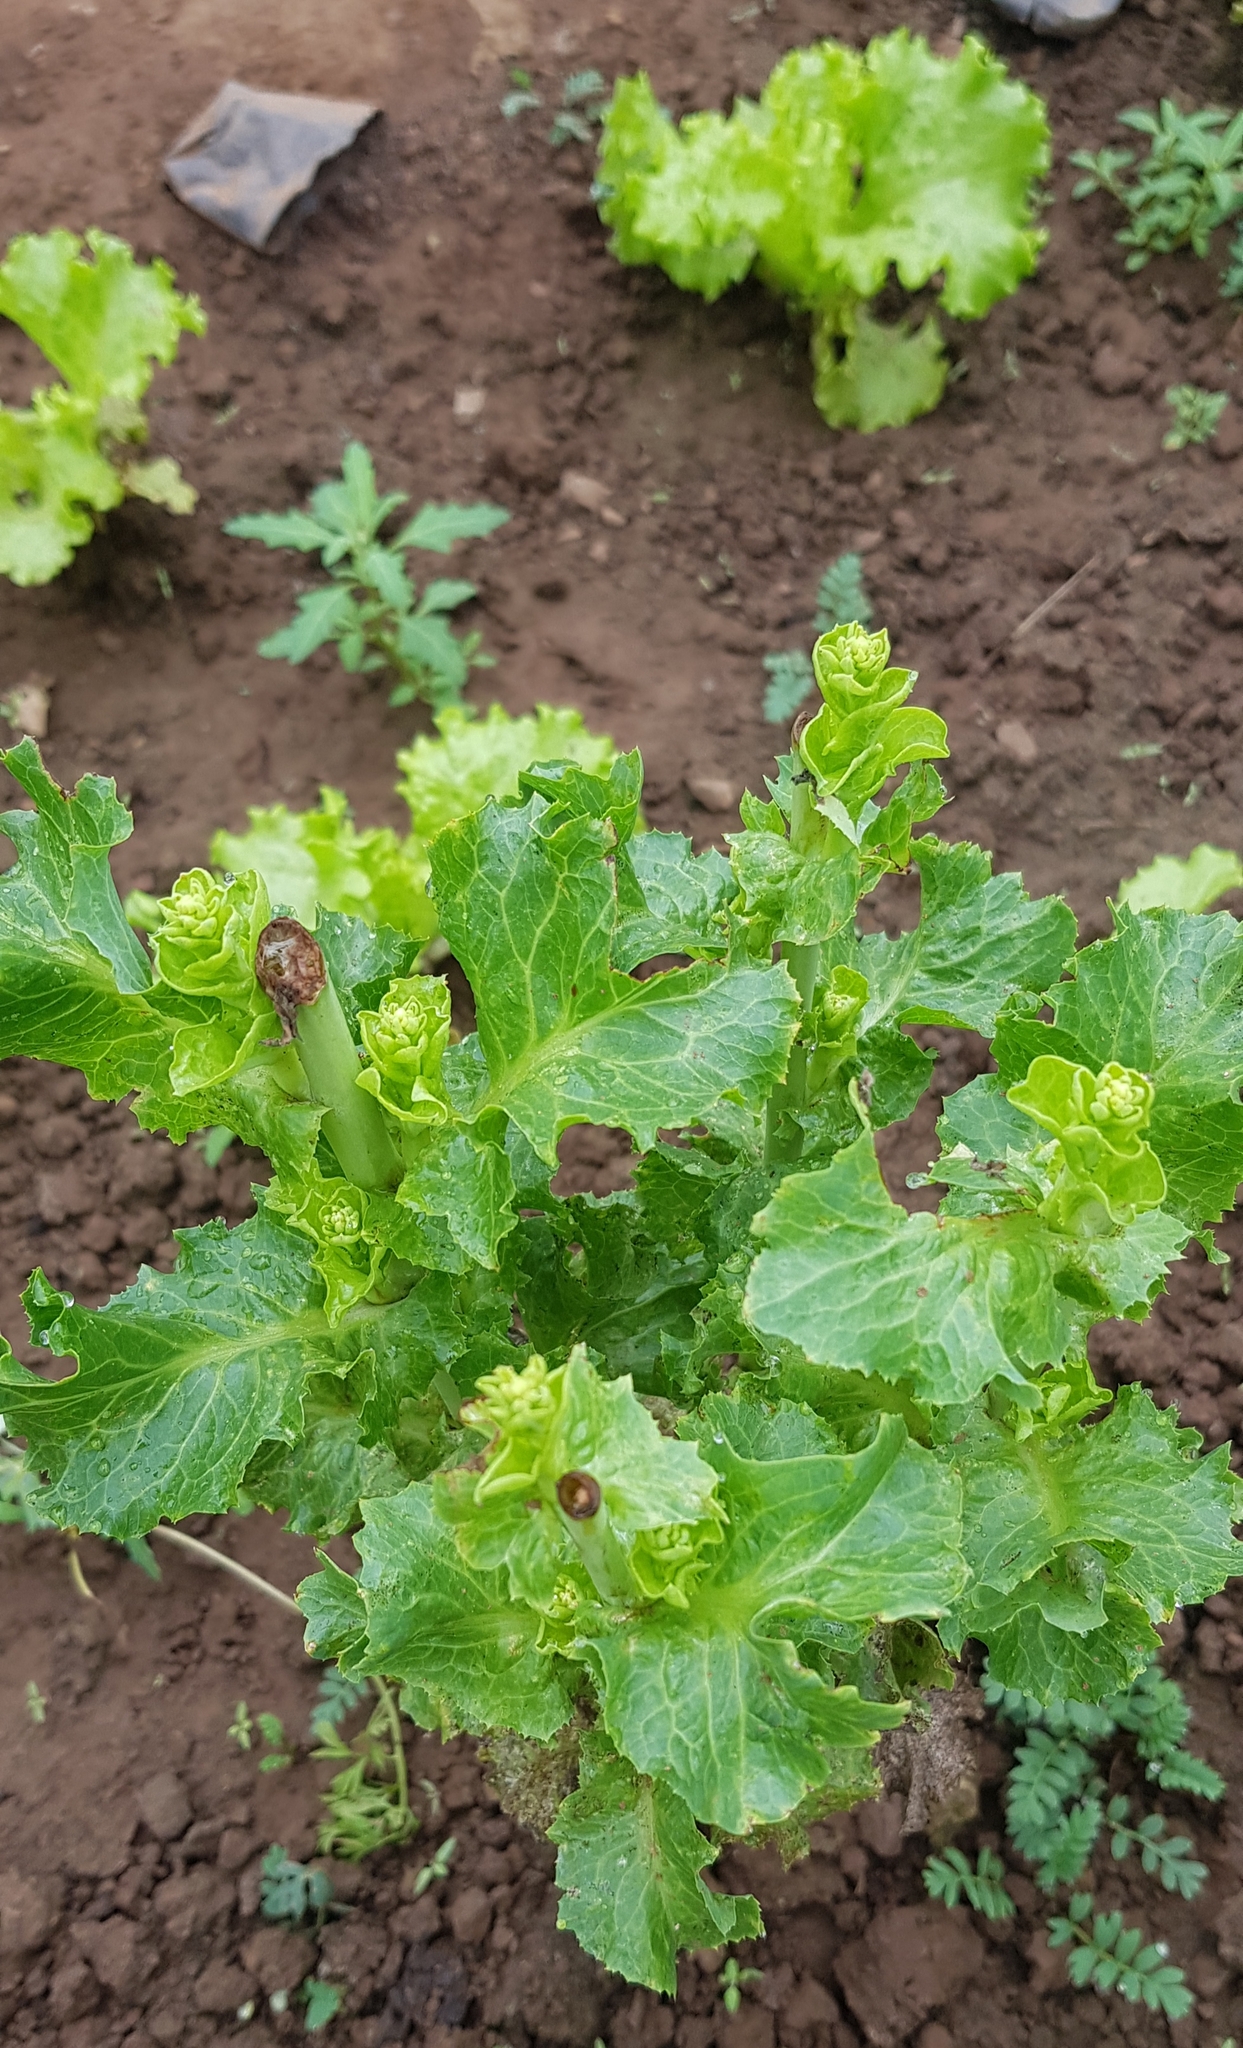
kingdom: Plantae
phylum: Tracheophyta
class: Magnoliopsida
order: Asterales
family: Asteraceae
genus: Lactuca
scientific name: Lactuca sativa
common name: Garden lettuce
